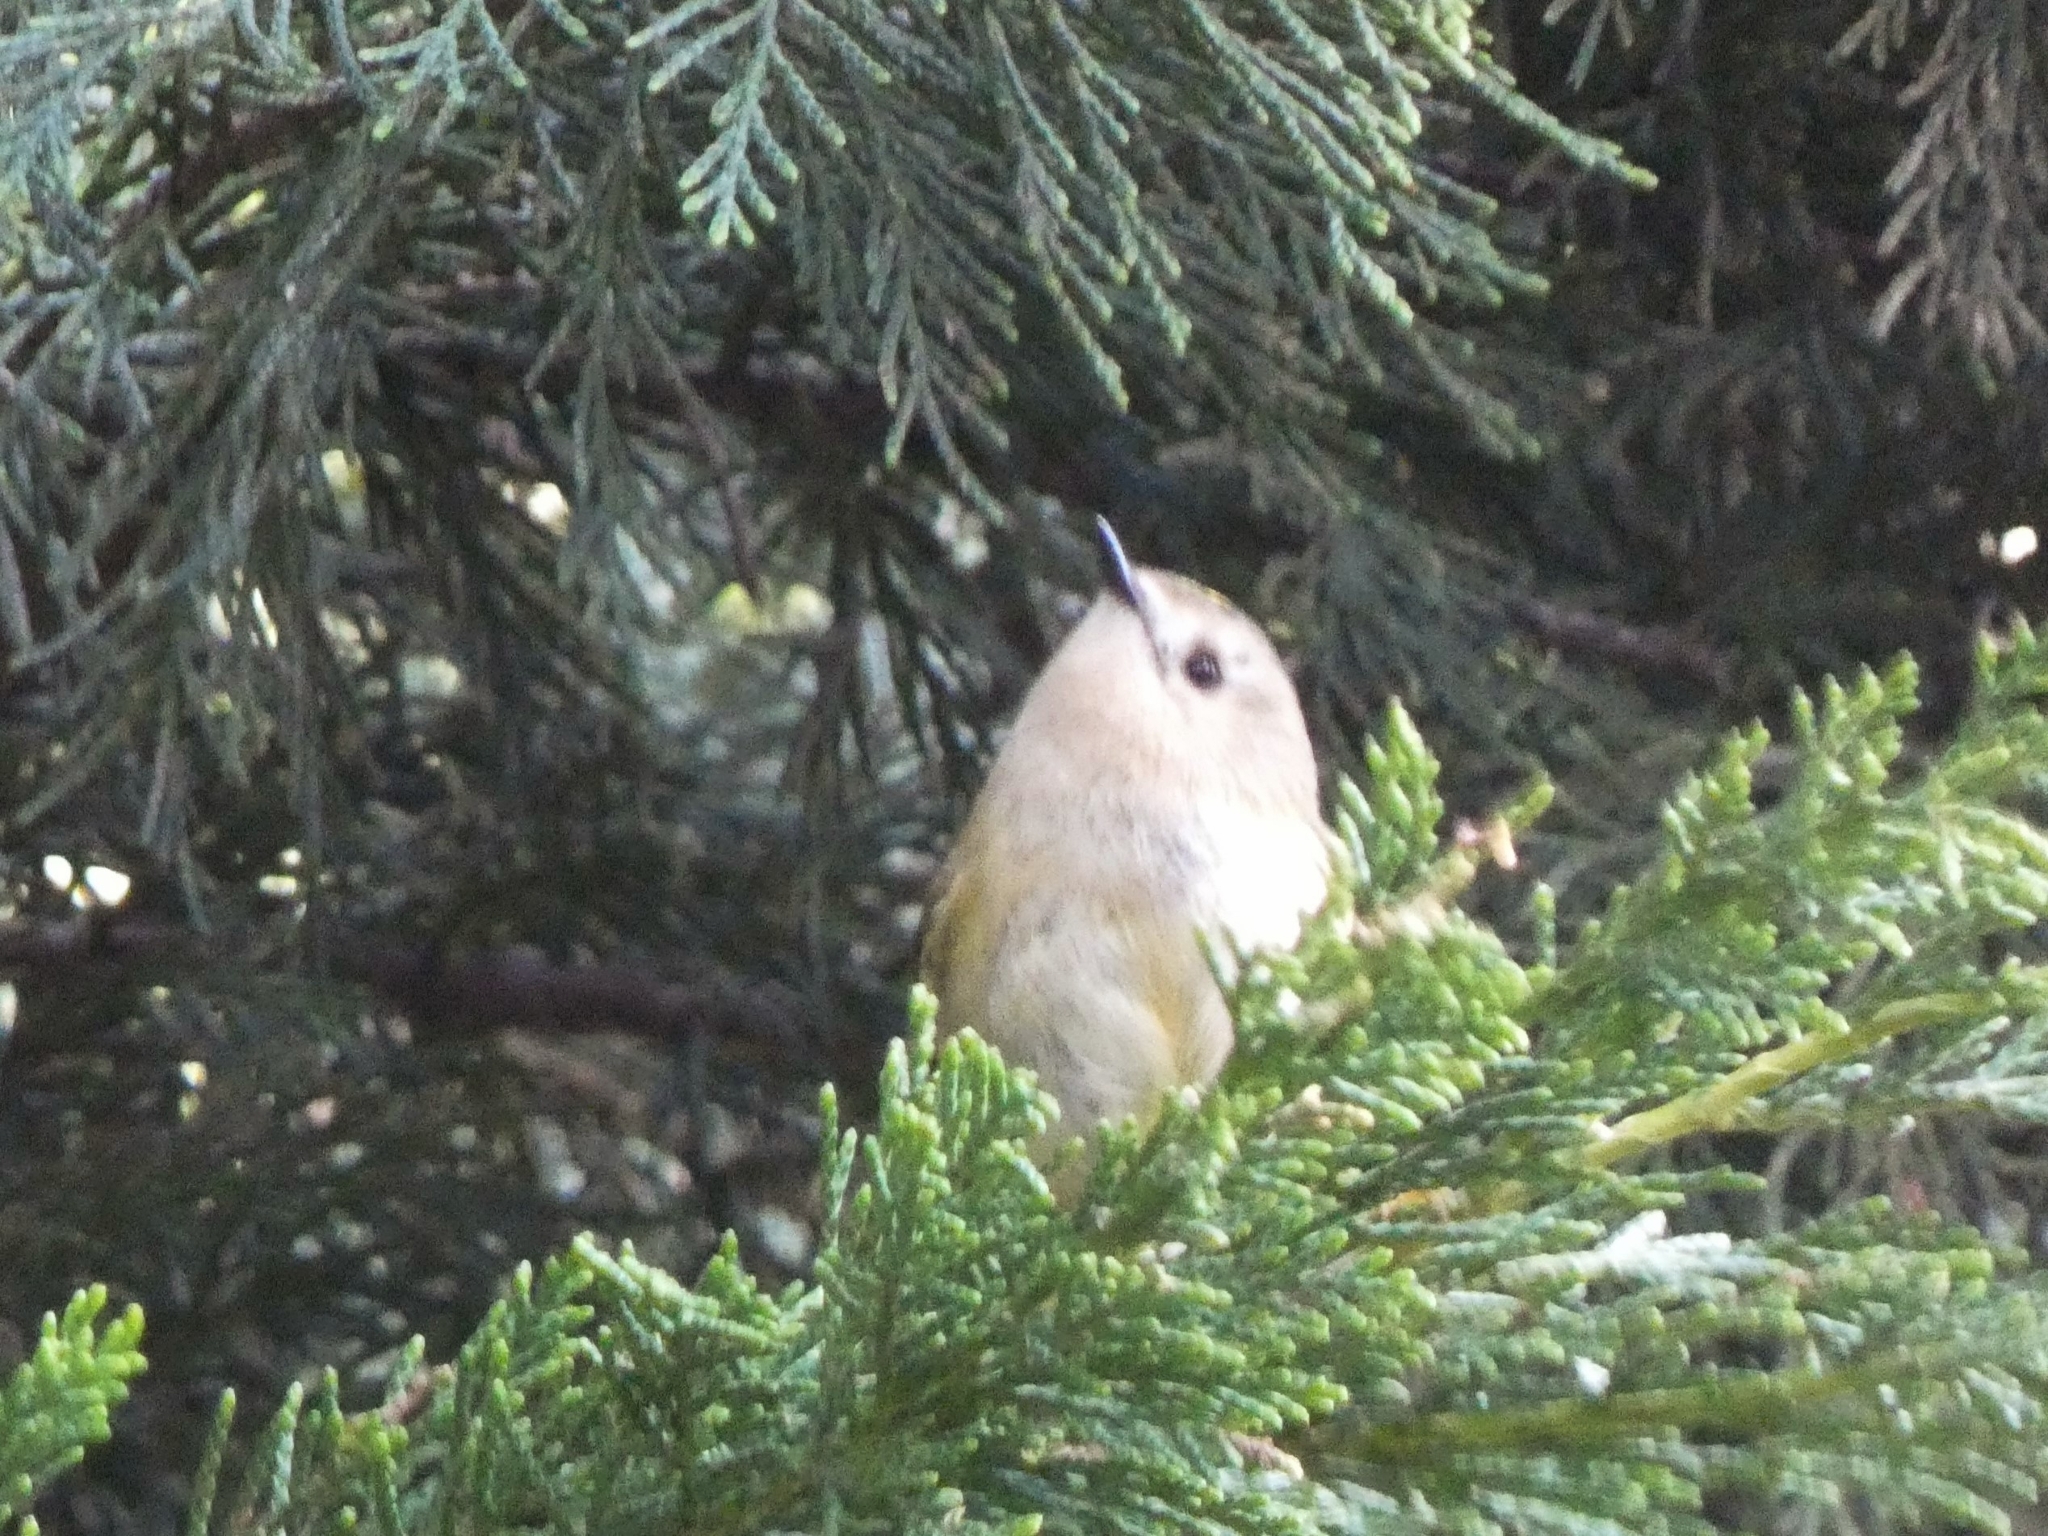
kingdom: Animalia
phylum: Chordata
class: Aves
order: Passeriformes
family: Regulidae
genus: Regulus
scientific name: Regulus regulus
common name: Goldcrest
